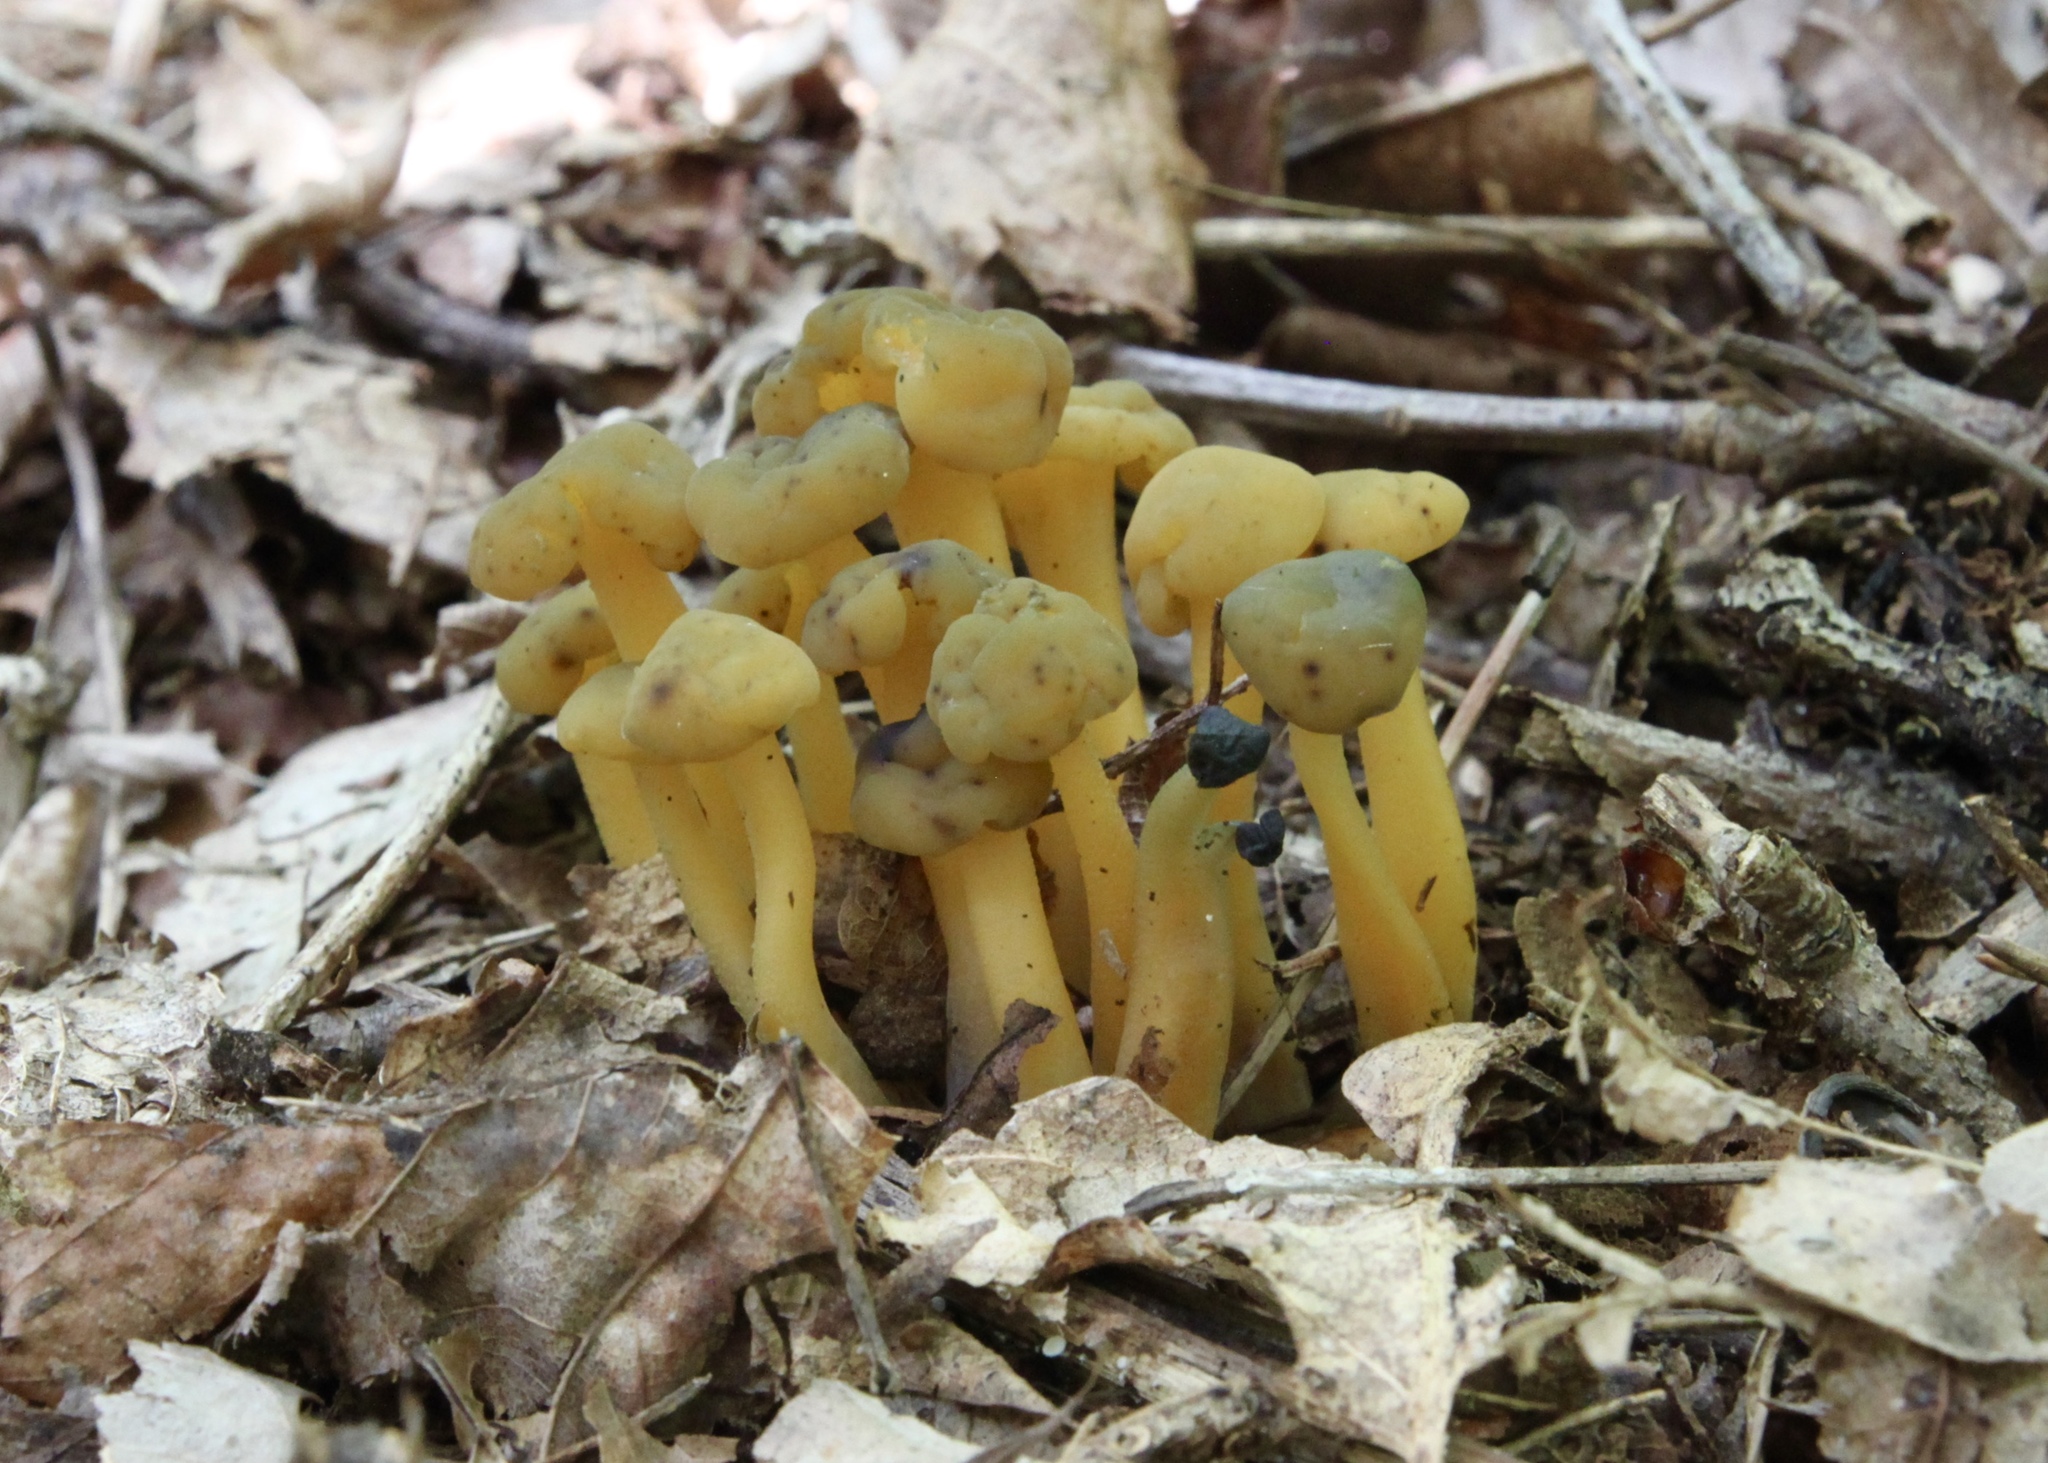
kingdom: Fungi
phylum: Ascomycota
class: Leotiomycetes
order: Leotiales
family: Leotiaceae
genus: Leotia
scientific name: Leotia lubrica
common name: Jellybaby
